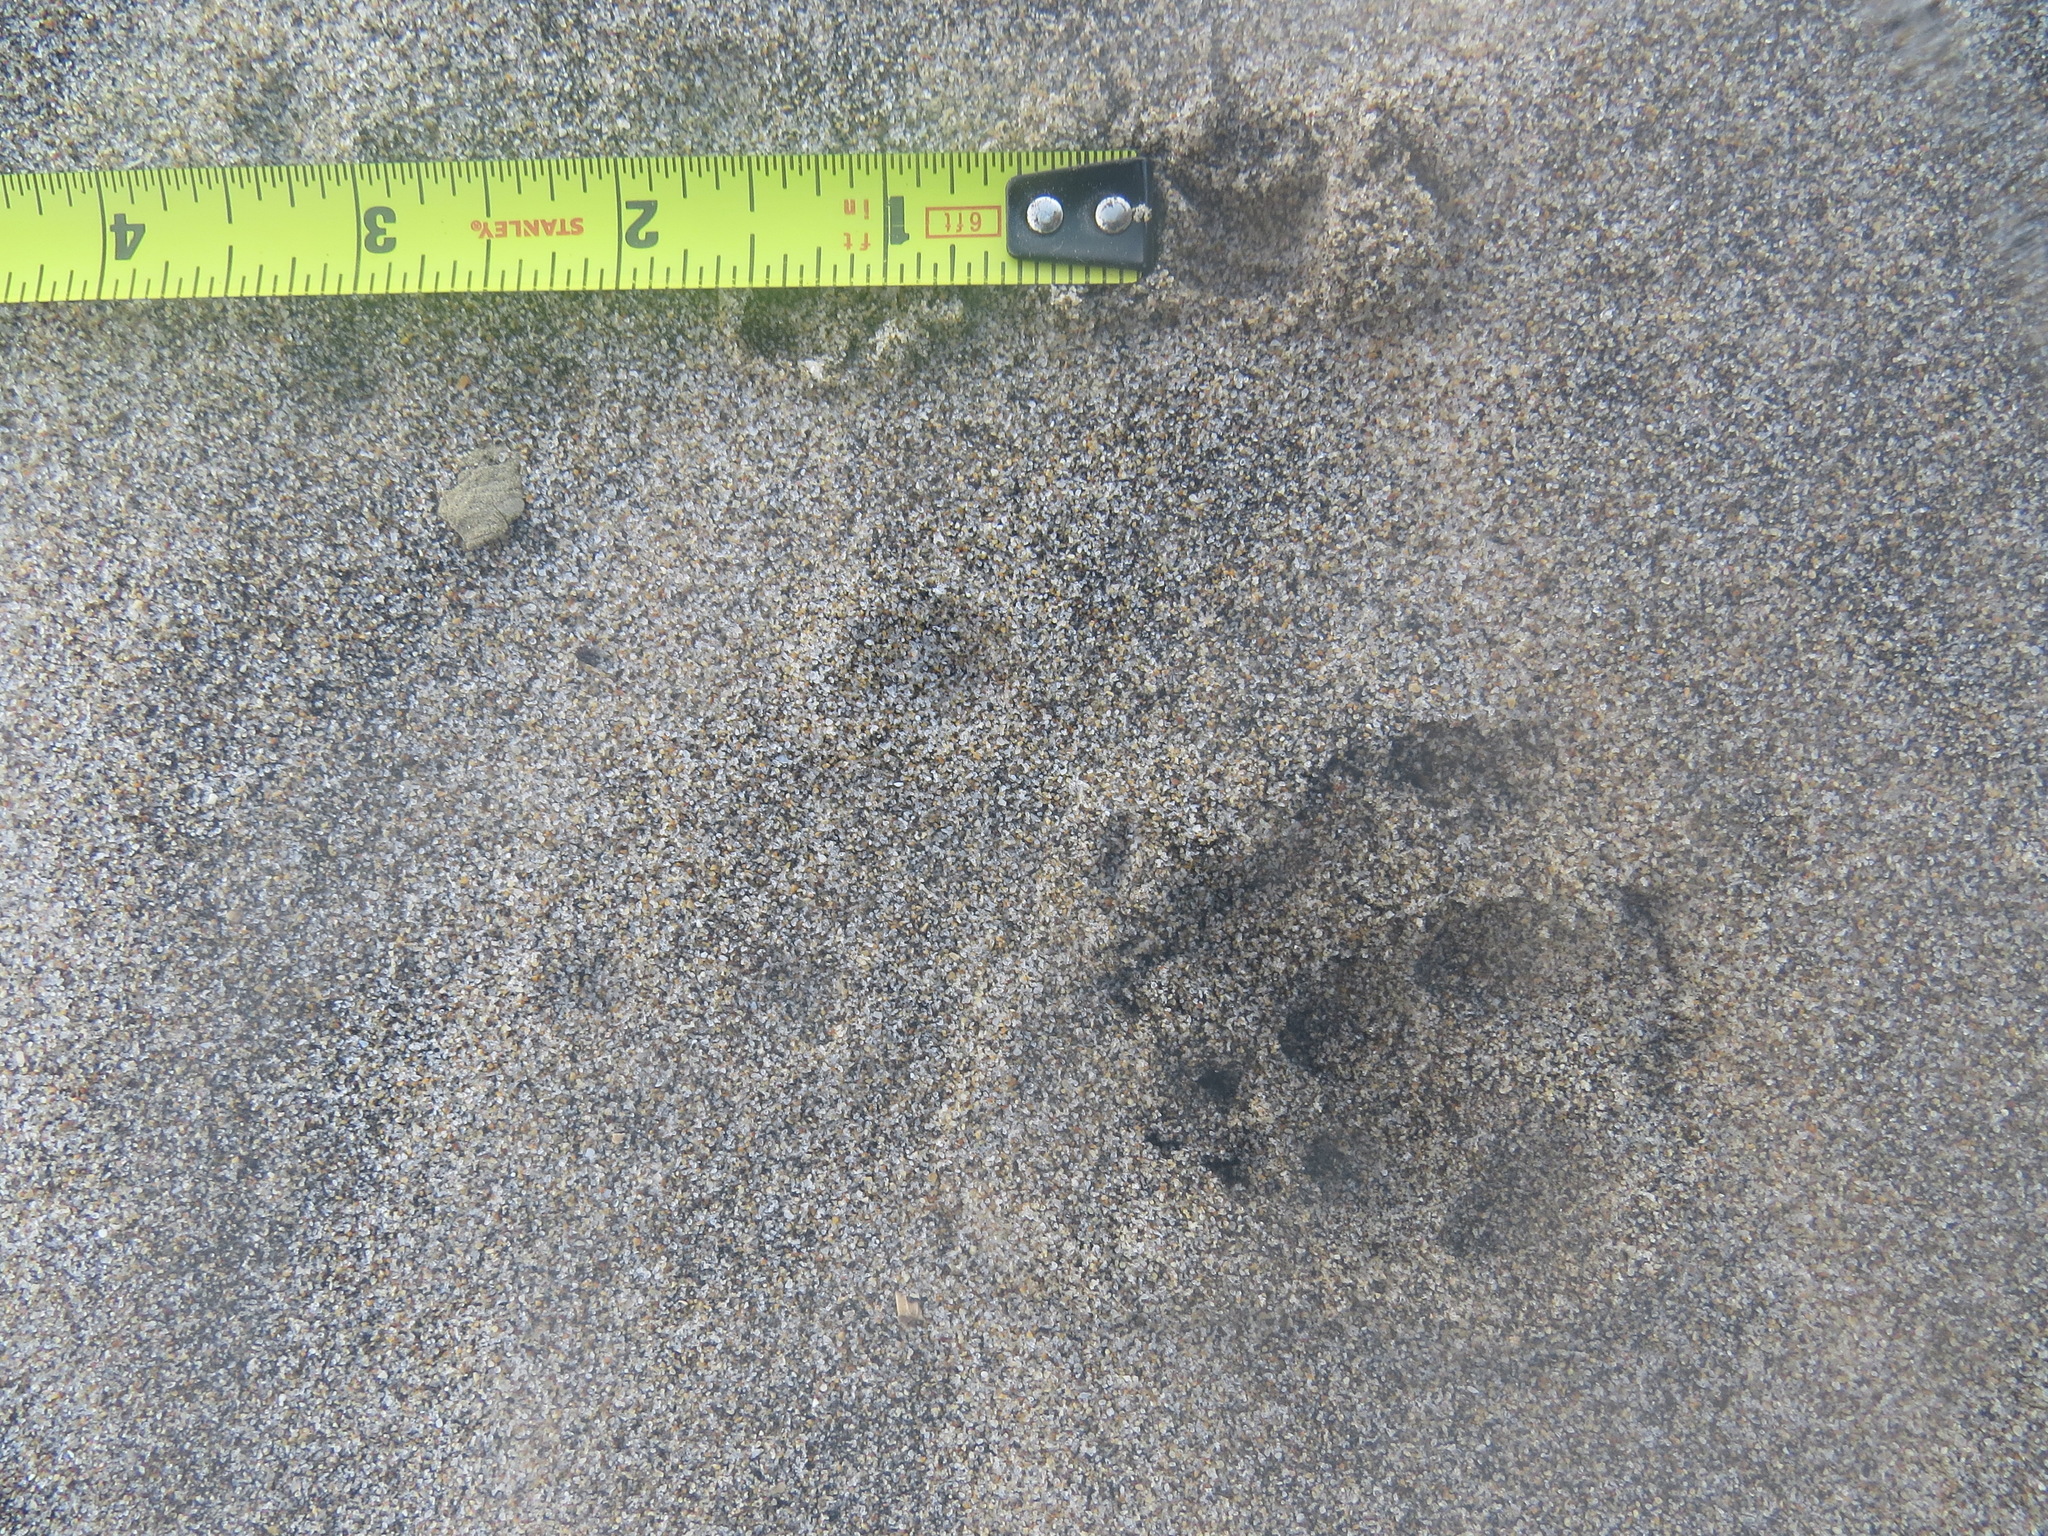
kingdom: Animalia
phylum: Chordata
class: Mammalia
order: Carnivora
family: Canidae
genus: Urocyon
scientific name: Urocyon cinereoargenteus
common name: Gray fox
